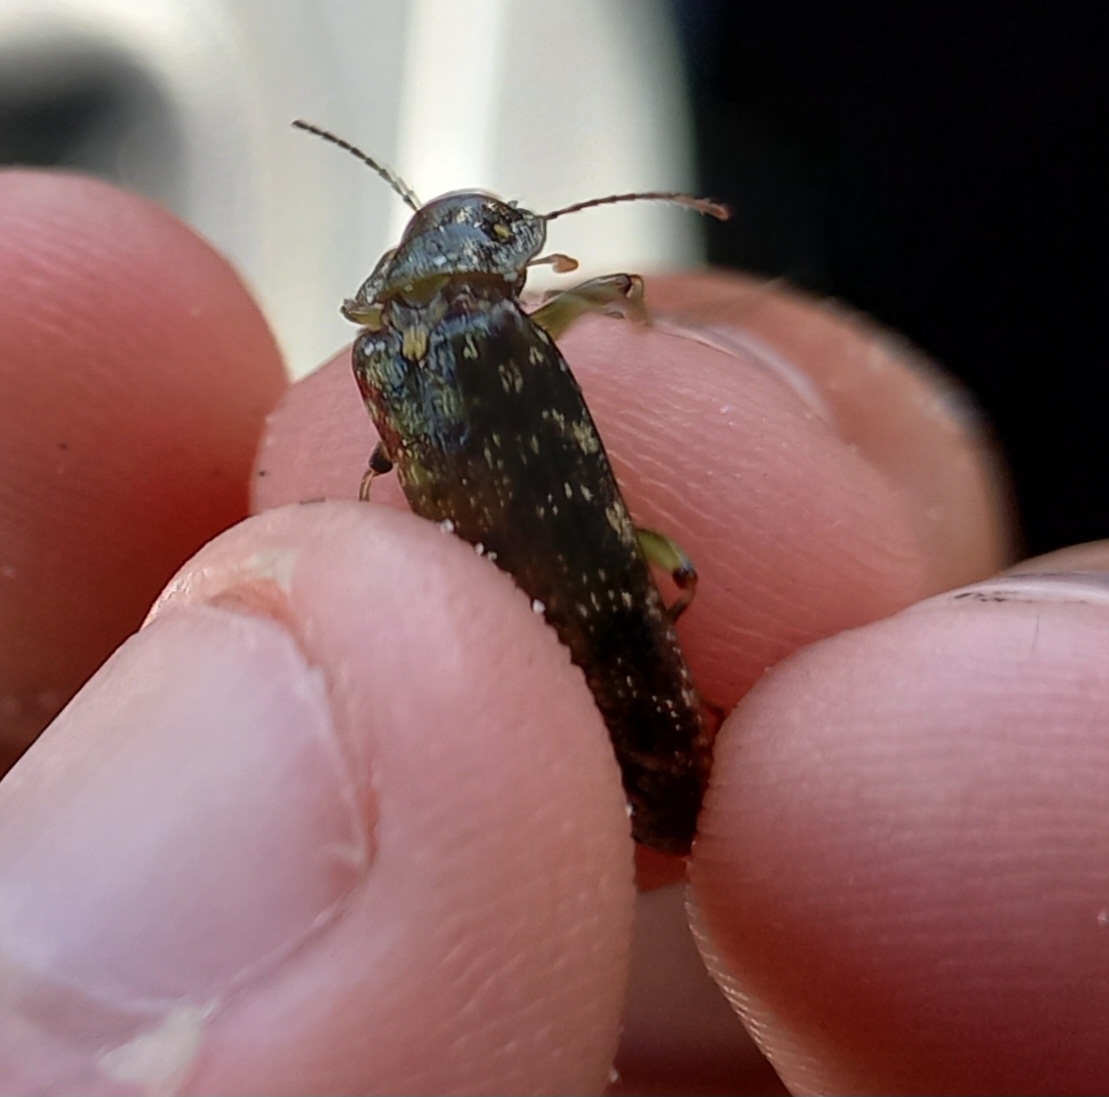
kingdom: Animalia
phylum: Arthropoda
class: Insecta
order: Coleoptera
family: Chalcodryidae
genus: Chalcodrya
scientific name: Chalcodrya
